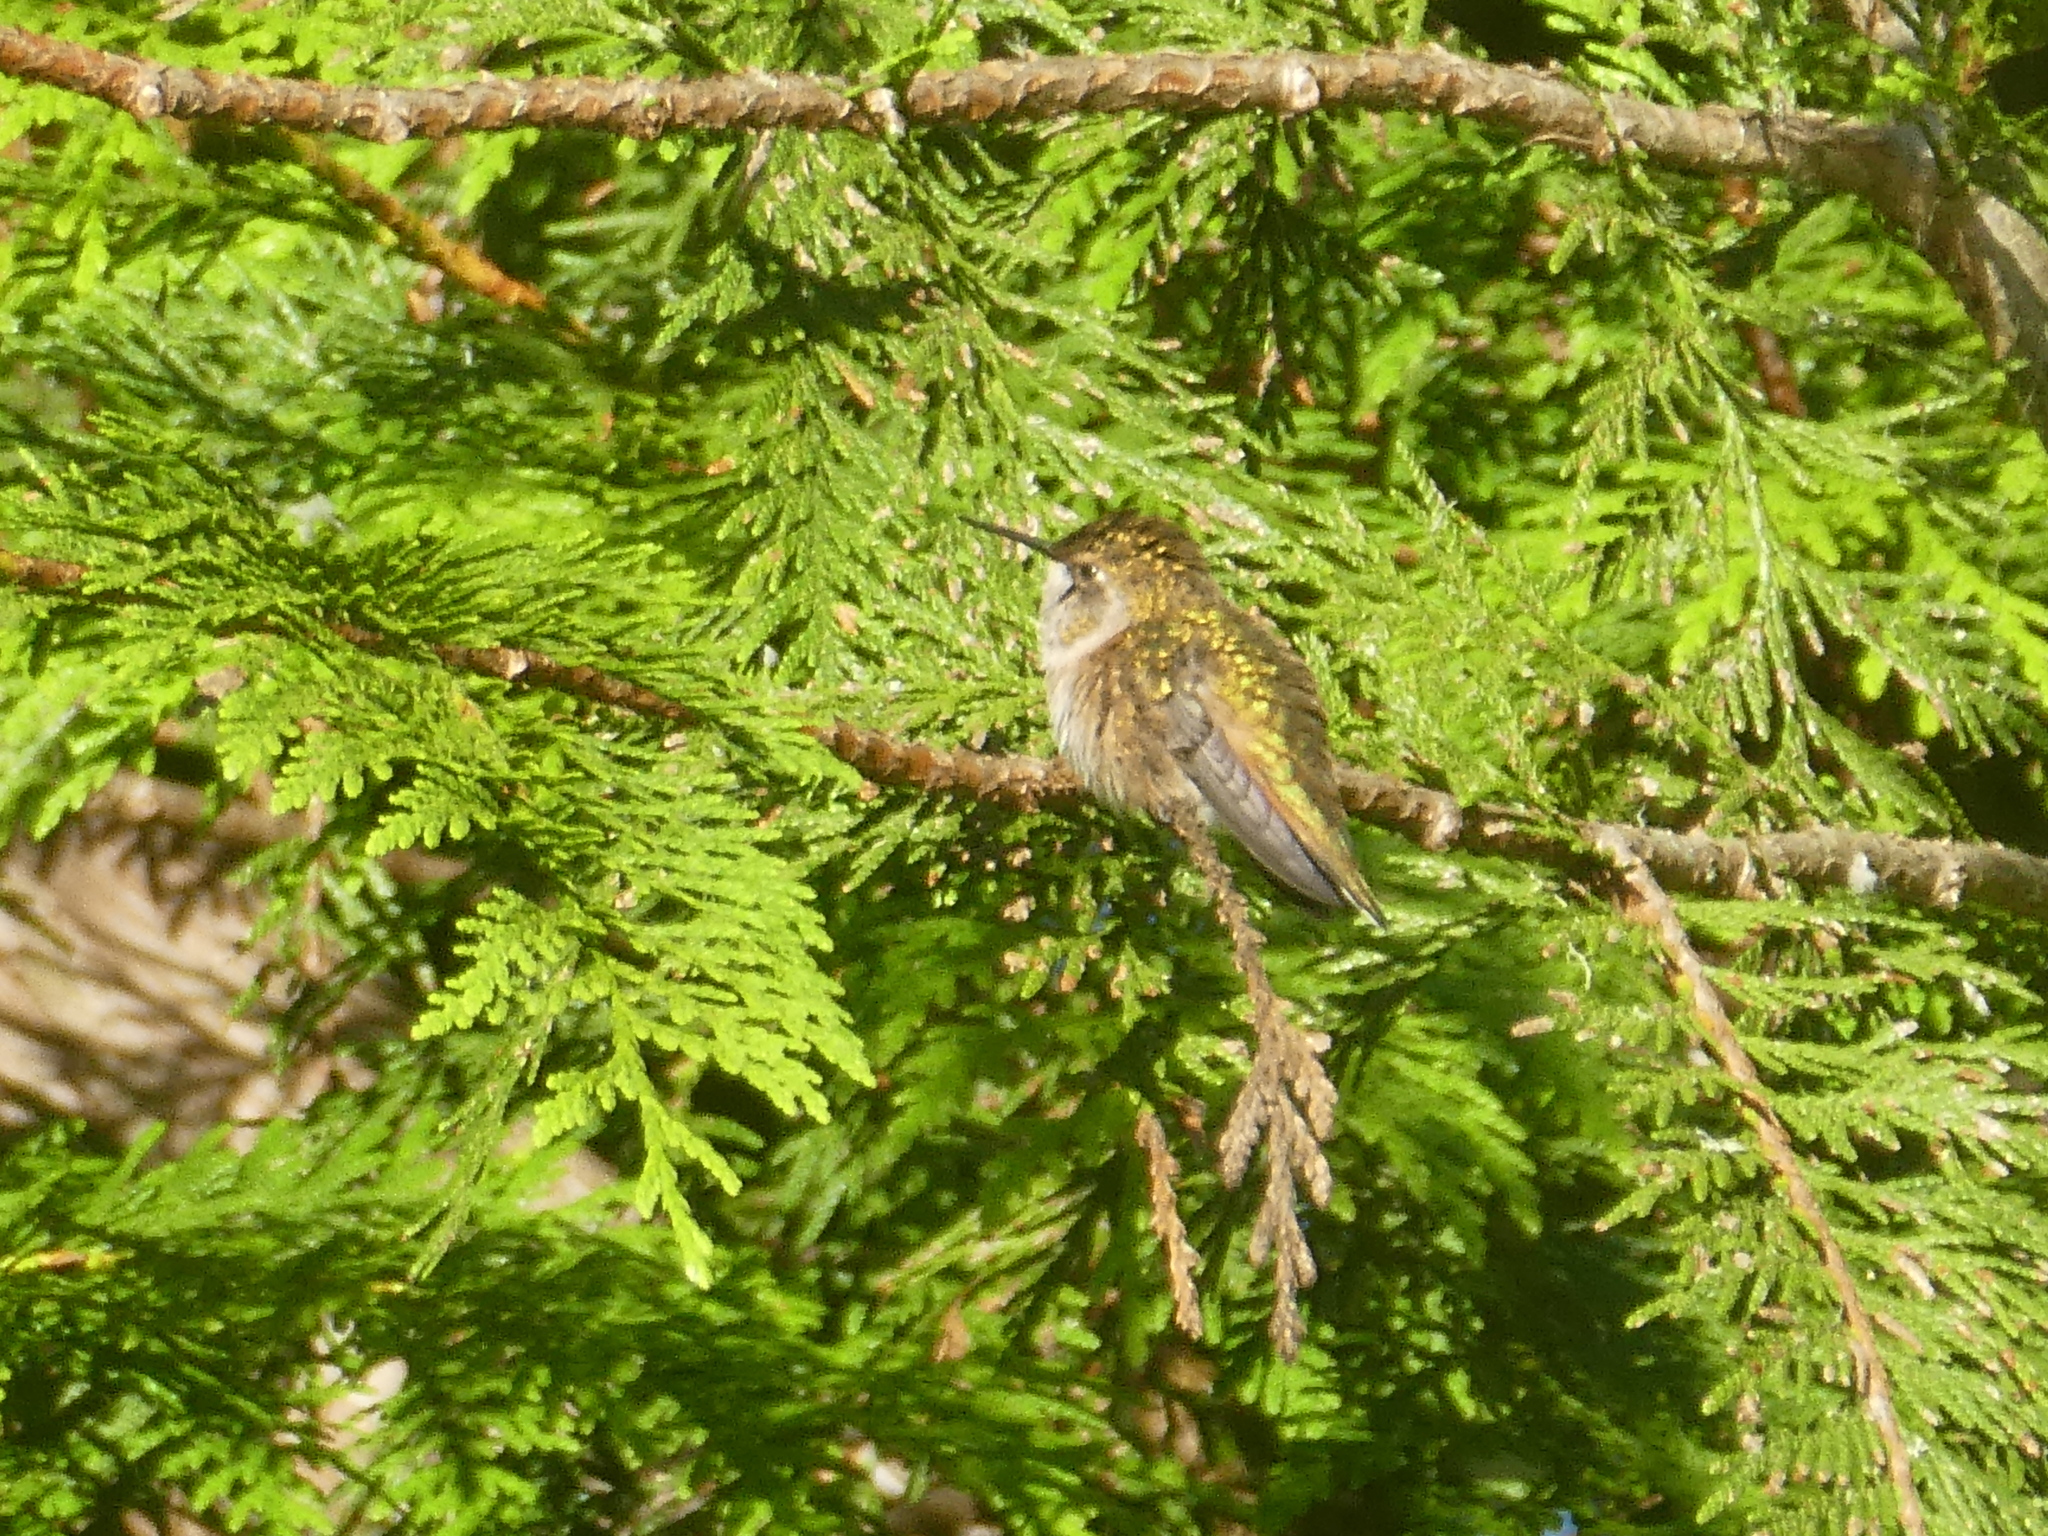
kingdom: Animalia
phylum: Chordata
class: Aves
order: Apodiformes
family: Trochilidae
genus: Calypte
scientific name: Calypte anna
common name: Anna's hummingbird
